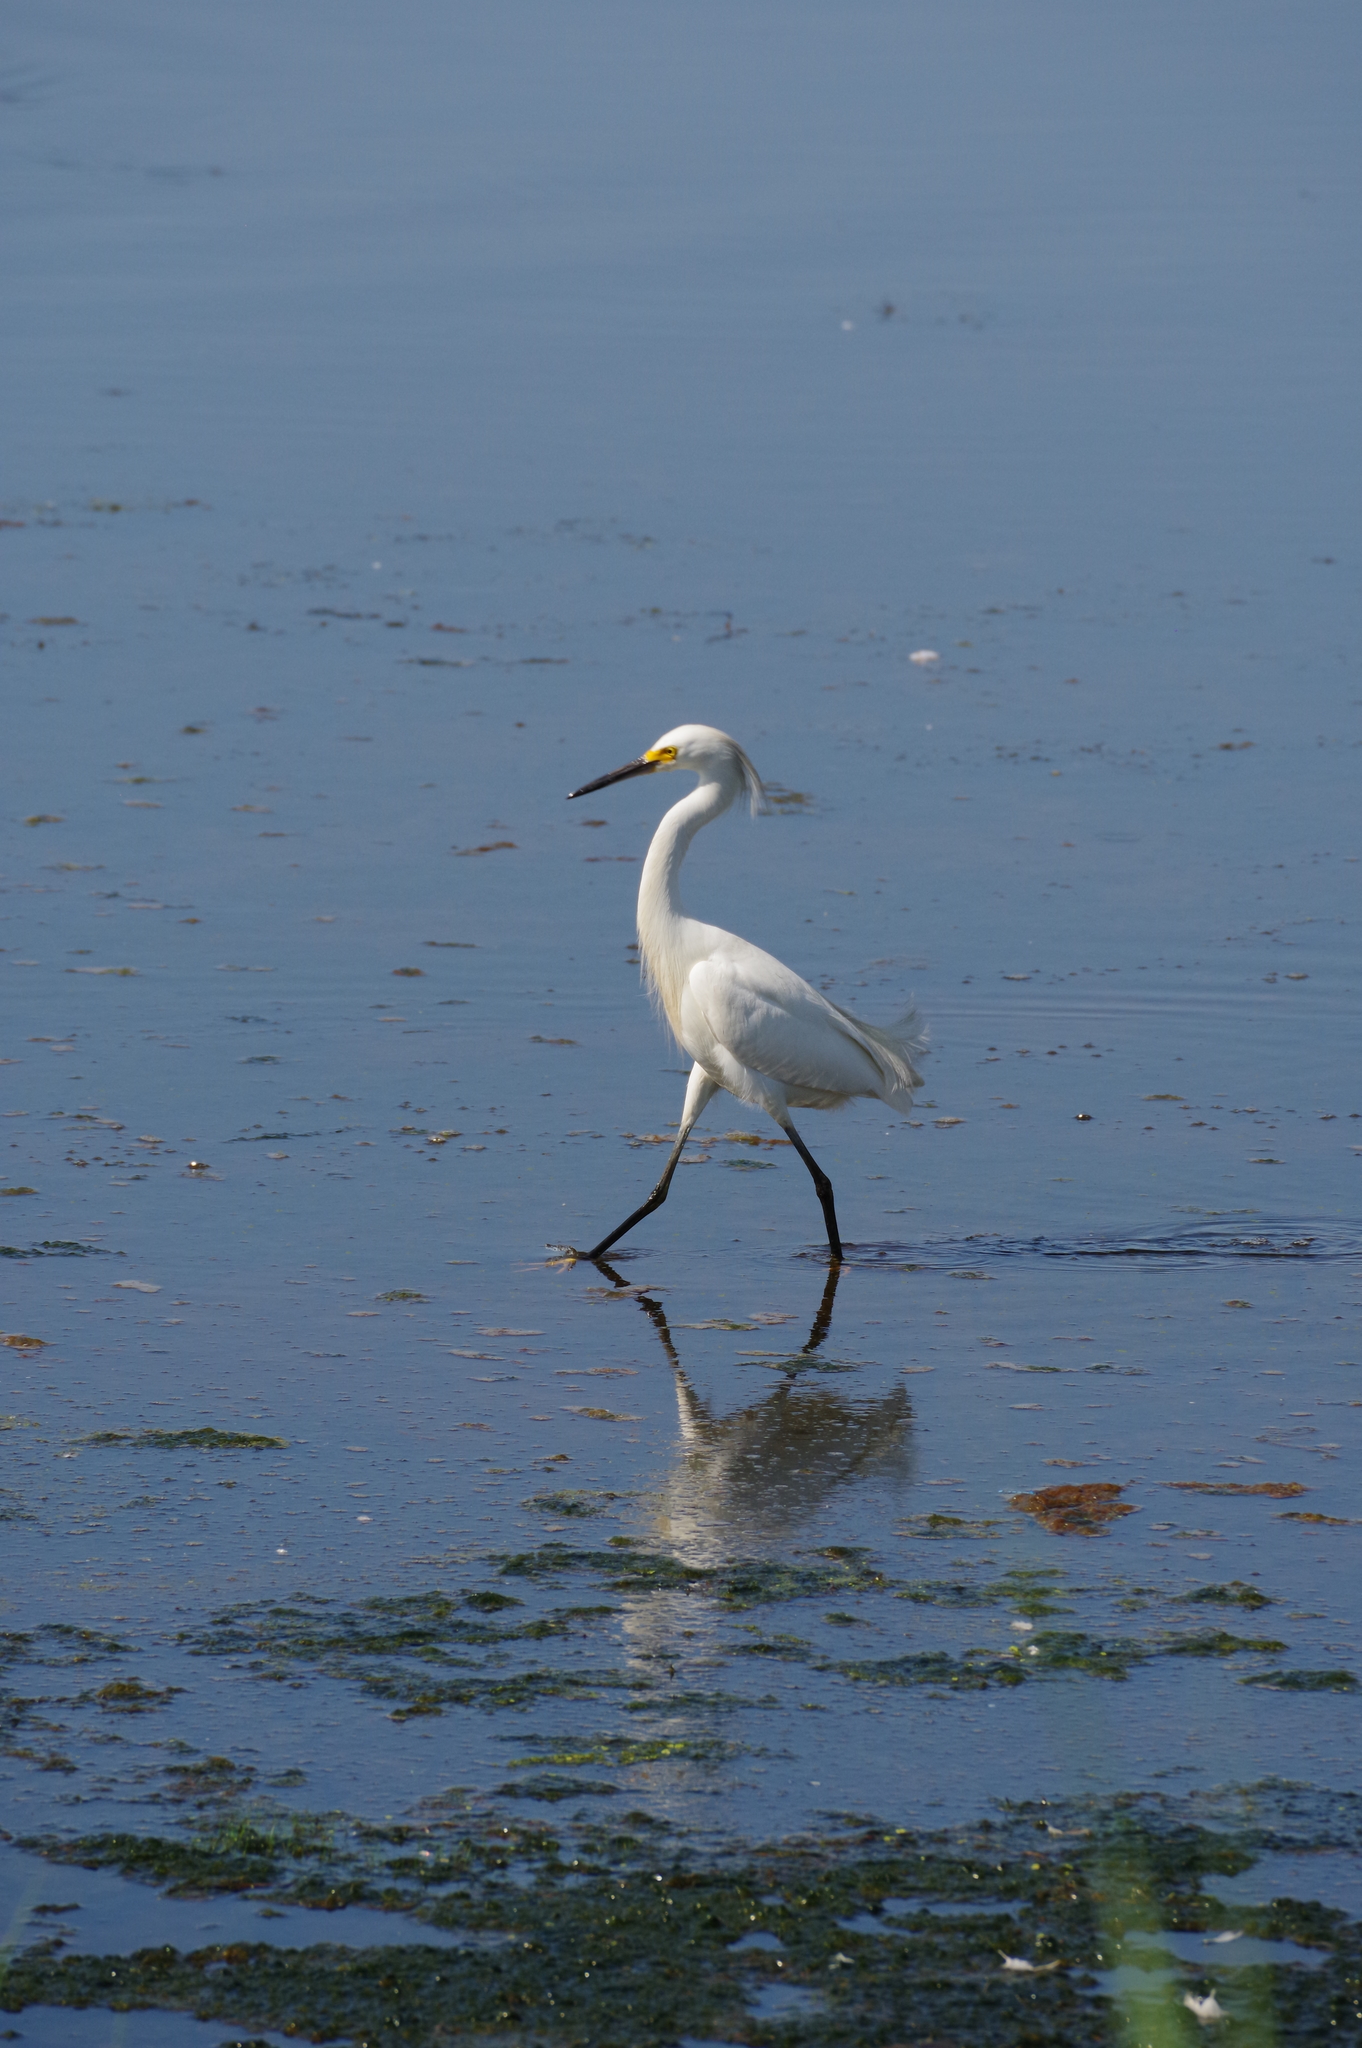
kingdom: Animalia
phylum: Chordata
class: Aves
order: Pelecaniformes
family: Ardeidae
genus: Egretta
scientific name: Egretta thula
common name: Snowy egret
